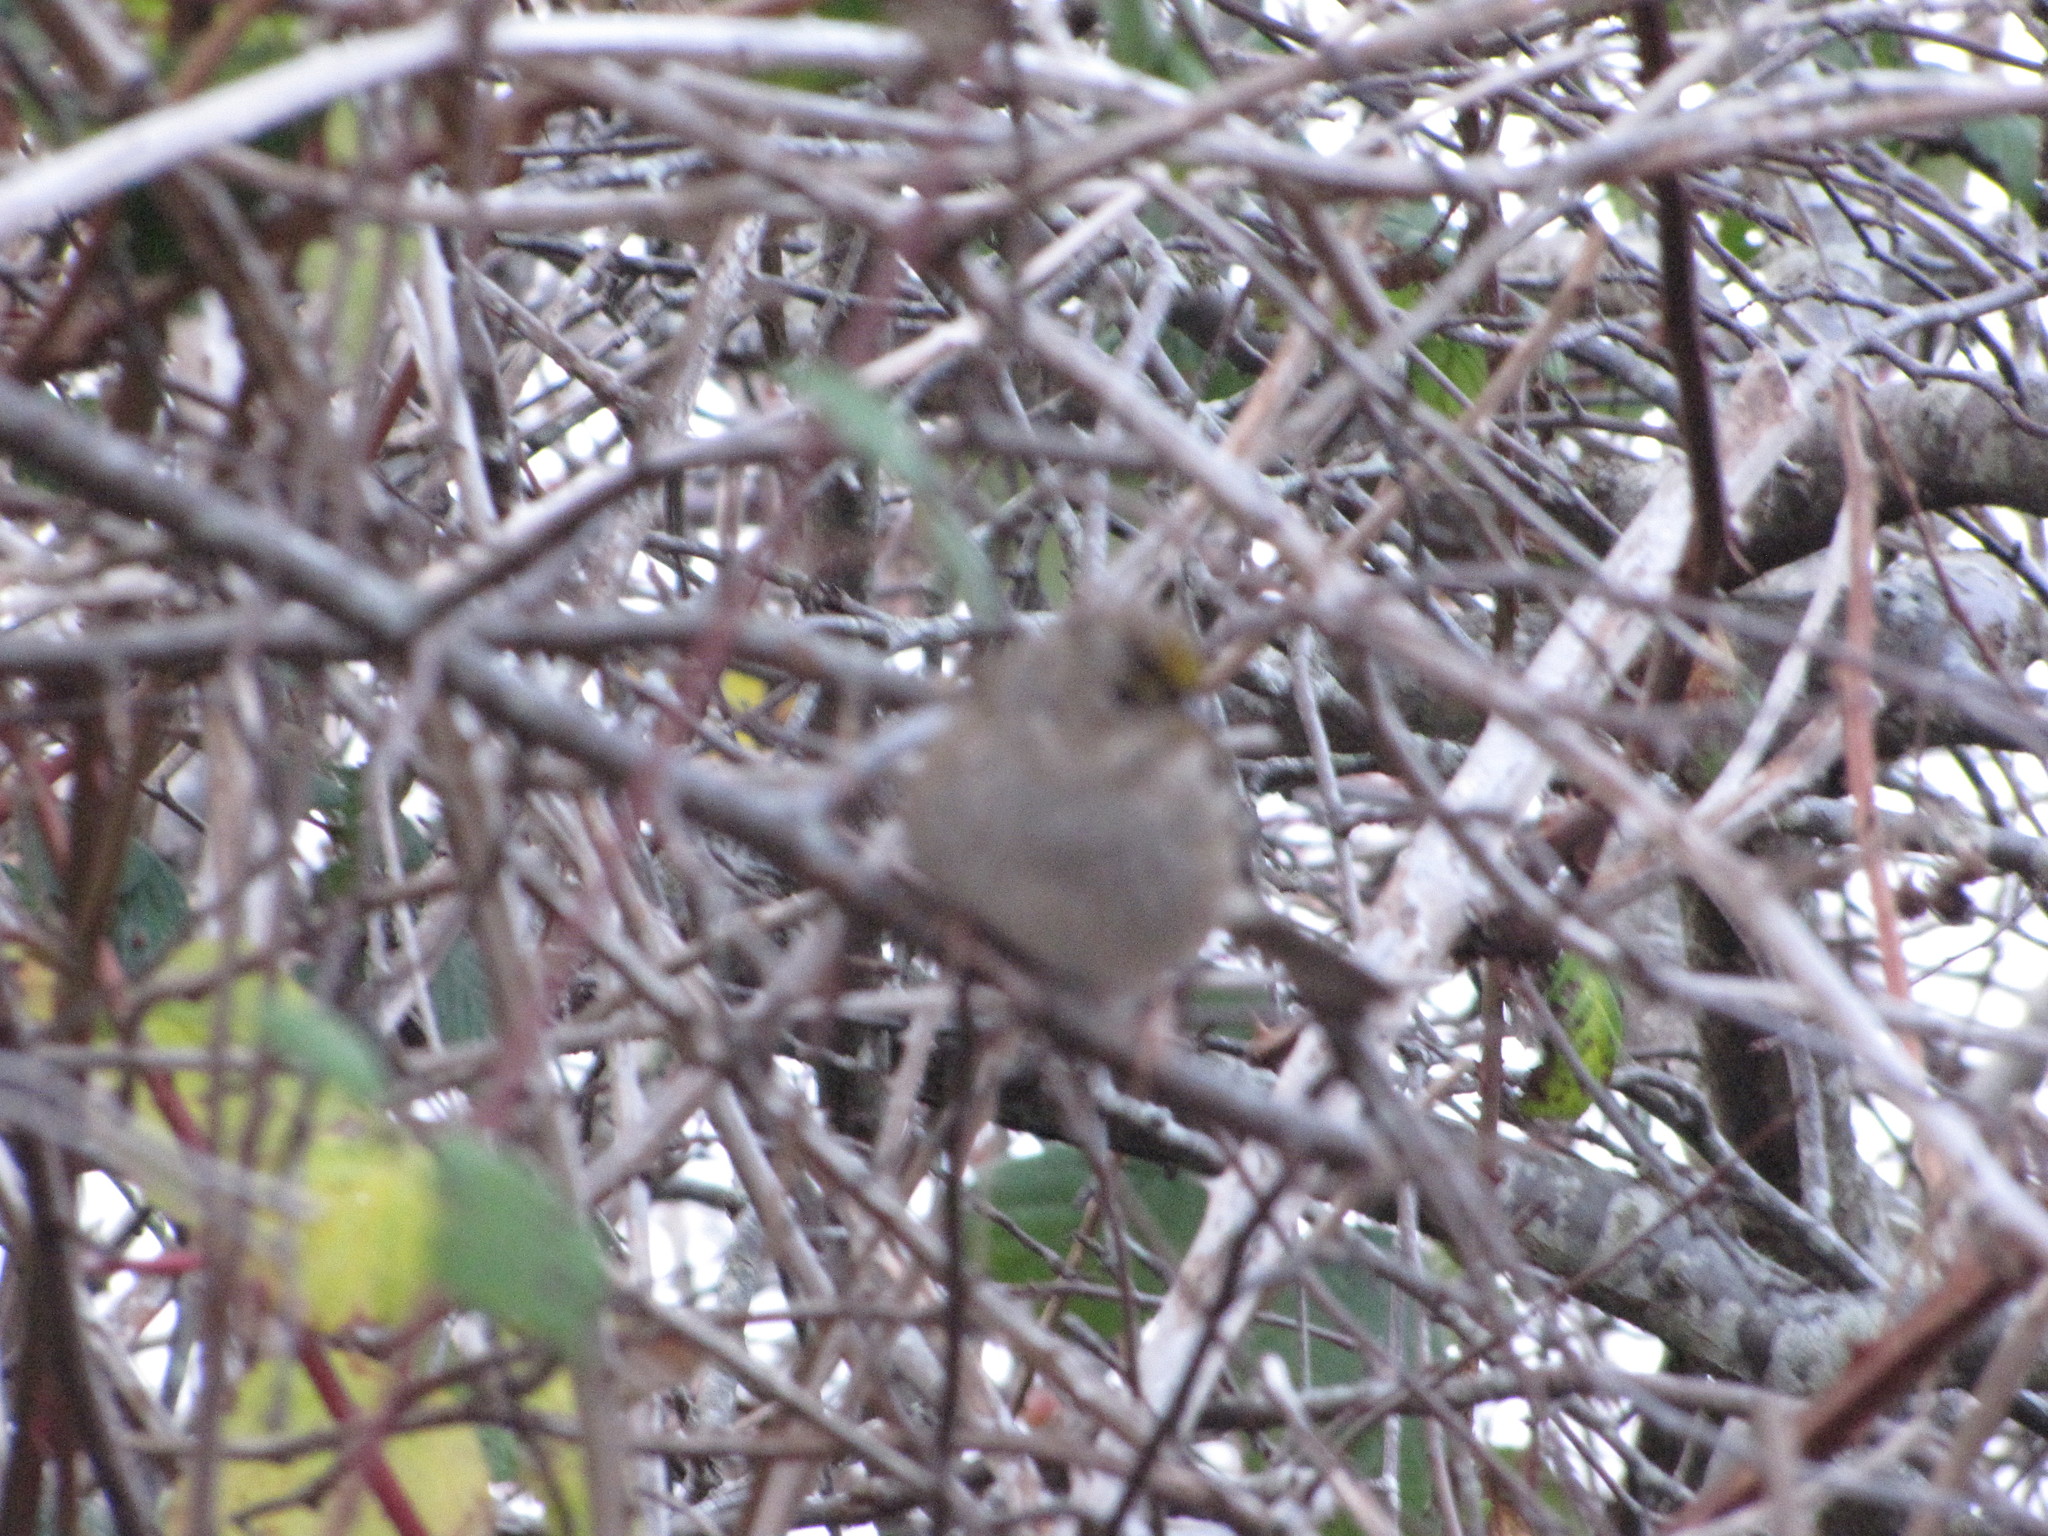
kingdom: Animalia
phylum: Chordata
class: Aves
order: Passeriformes
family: Passerellidae
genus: Zonotrichia
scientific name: Zonotrichia atricapilla
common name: Golden-crowned sparrow
